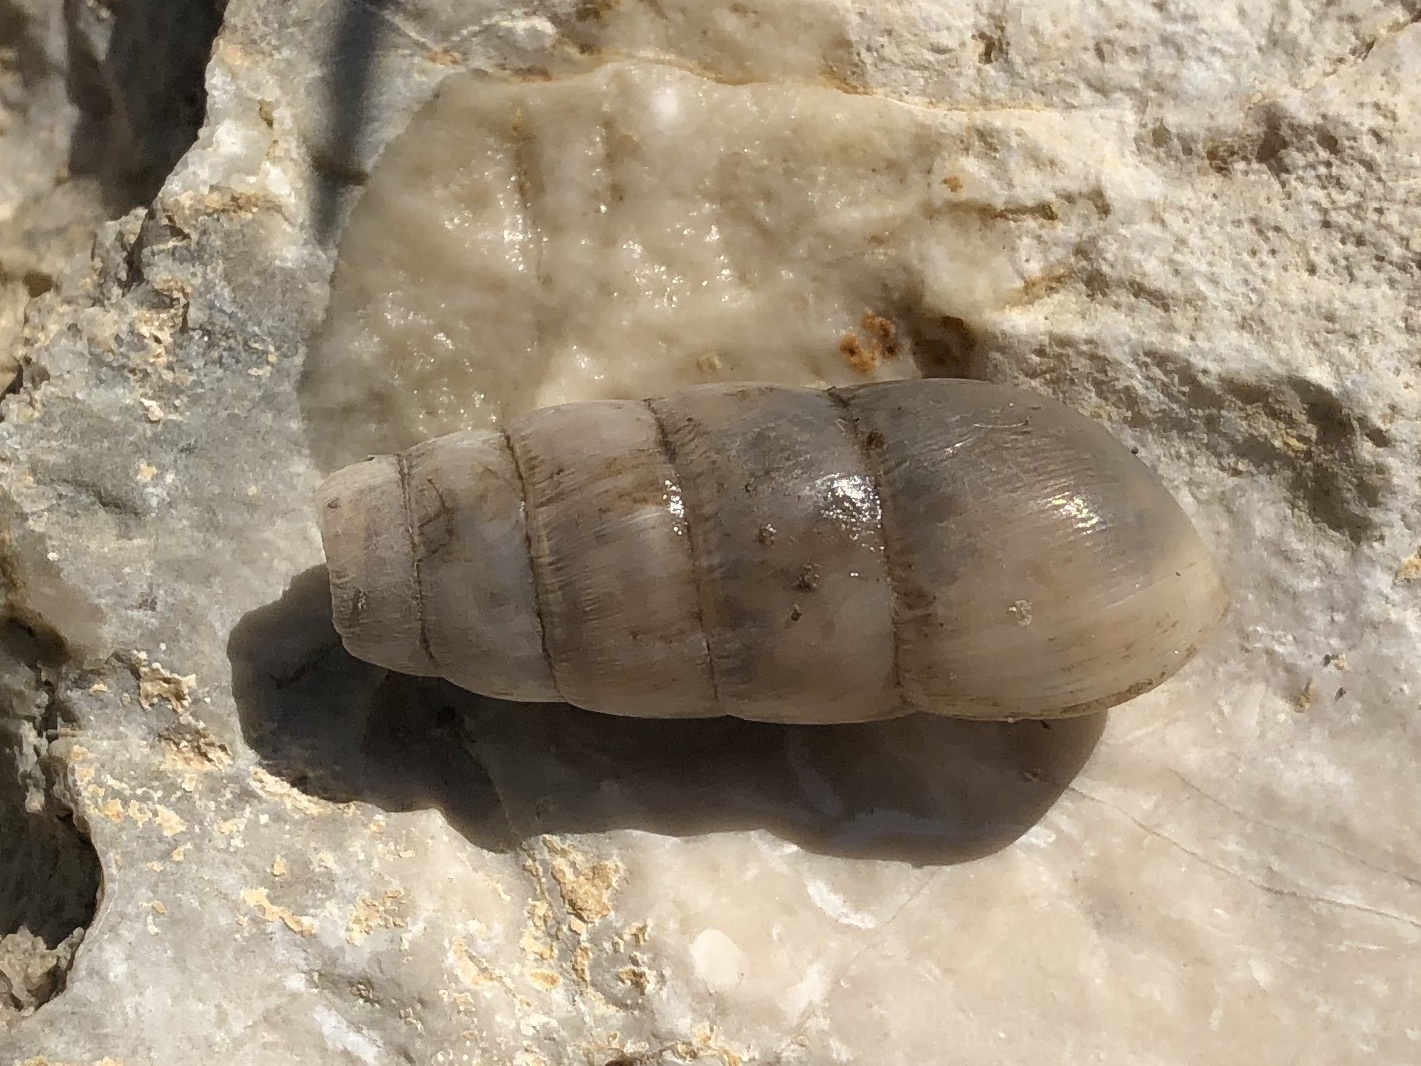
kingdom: Animalia
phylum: Mollusca
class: Gastropoda
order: Stylommatophora
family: Achatinidae
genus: Rumina
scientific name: Rumina decollata
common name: Decollate snail
